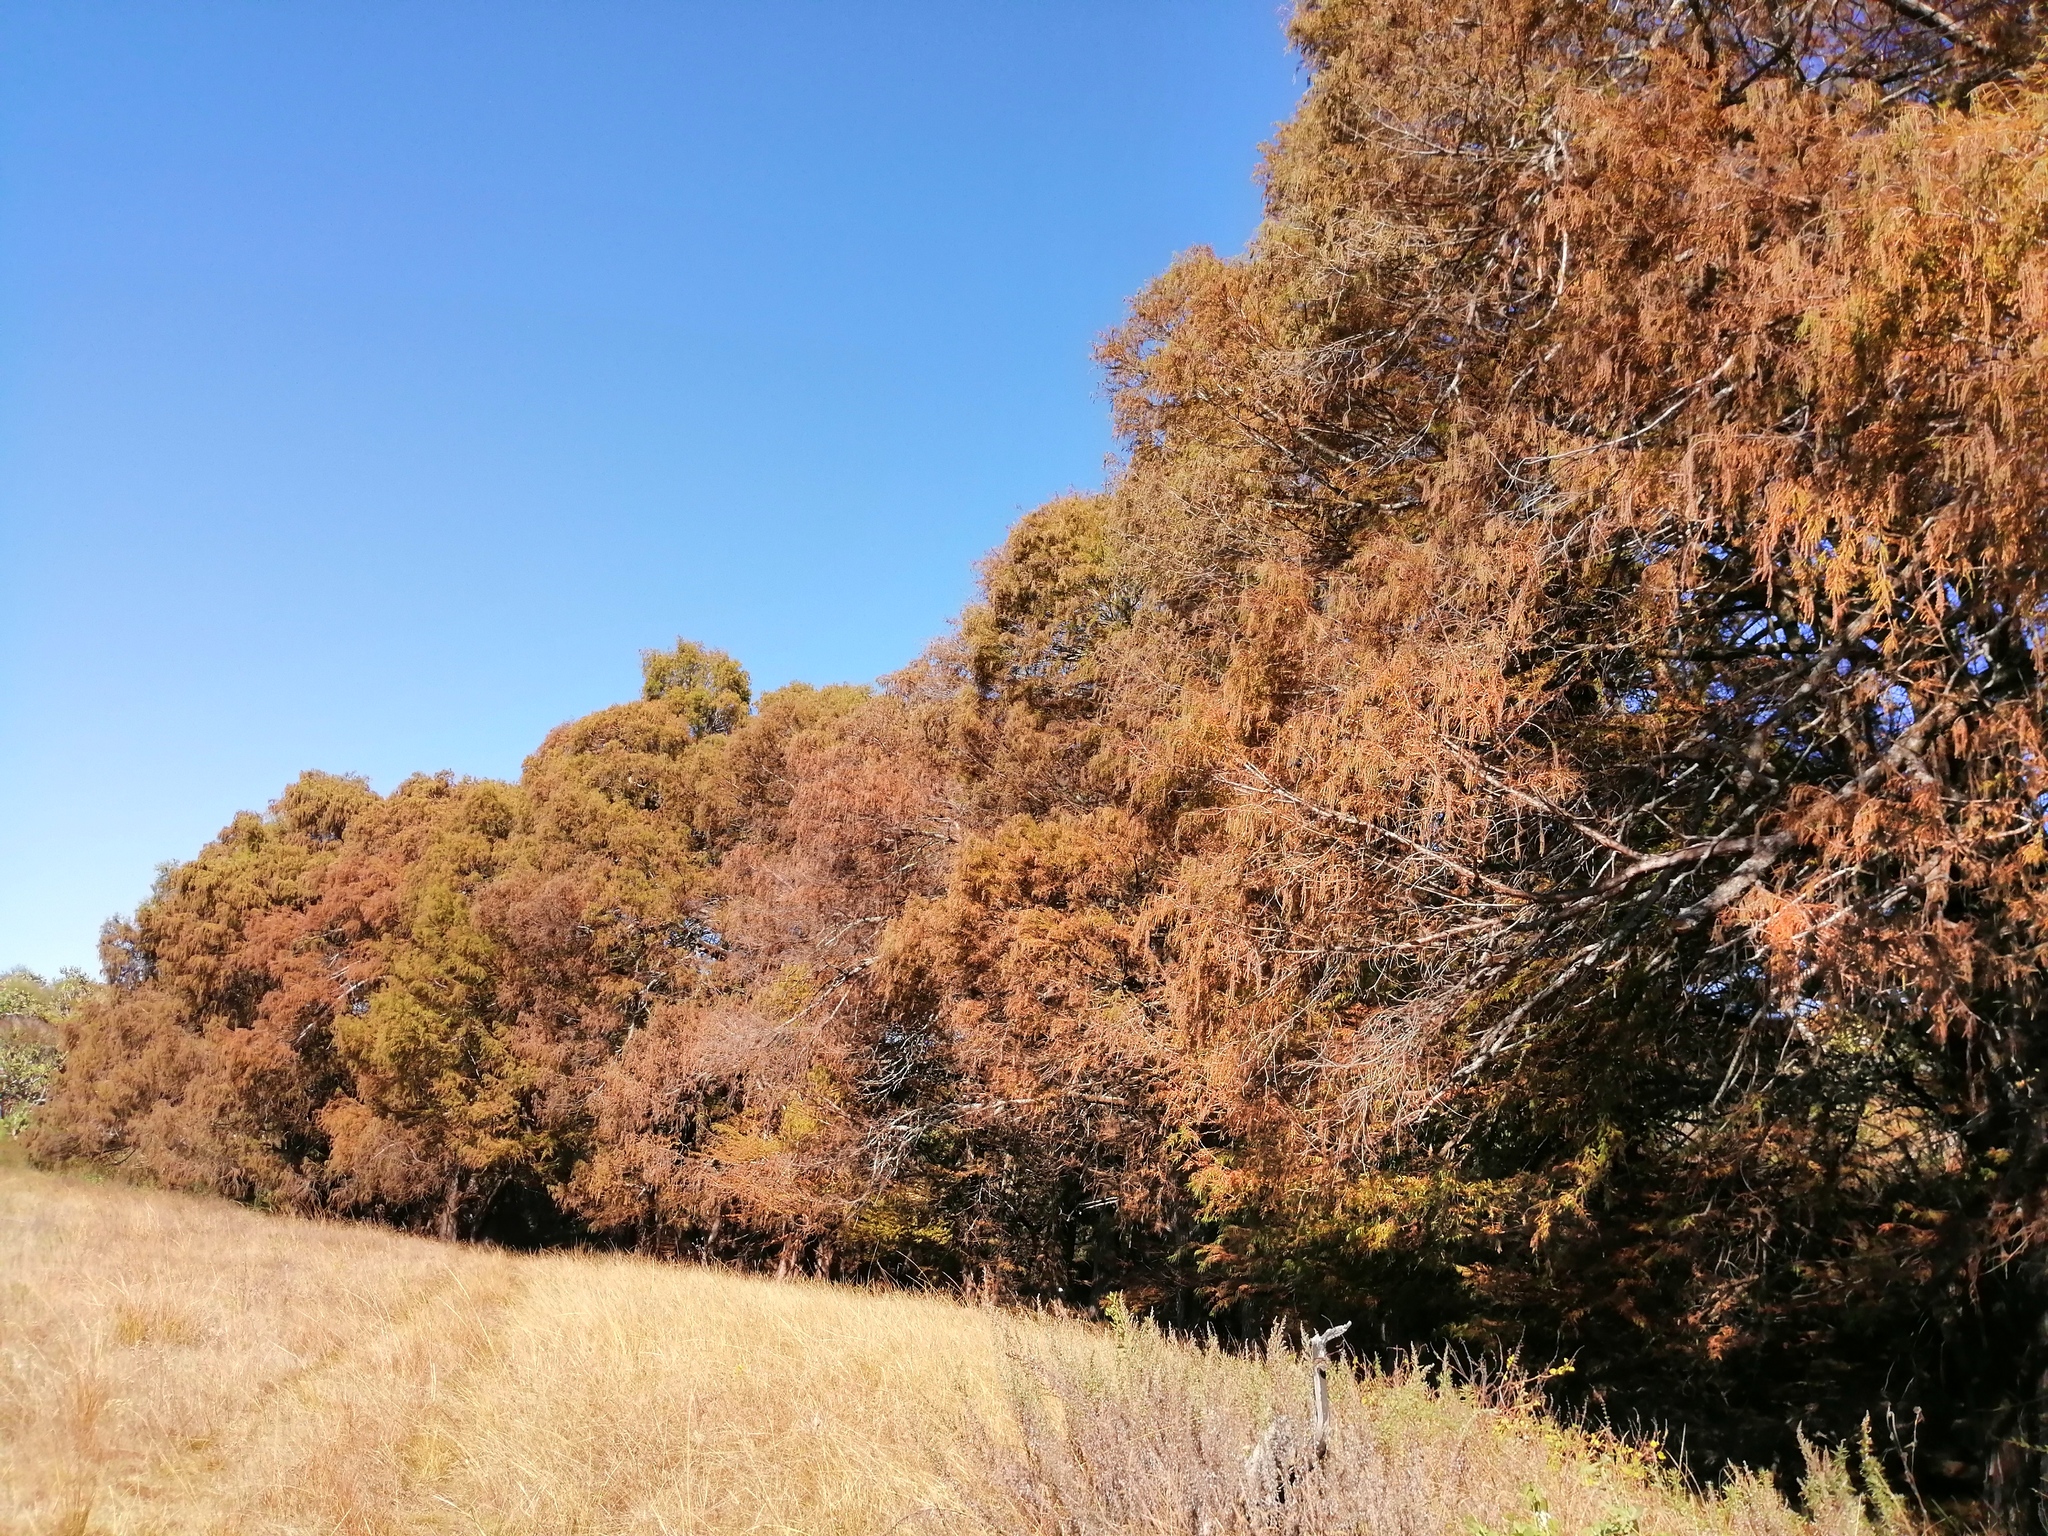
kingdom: Plantae
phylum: Tracheophyta
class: Pinopsida
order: Pinales
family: Cupressaceae
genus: Taxodium
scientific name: Taxodium mucronatum
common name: Montezume bald cypress
